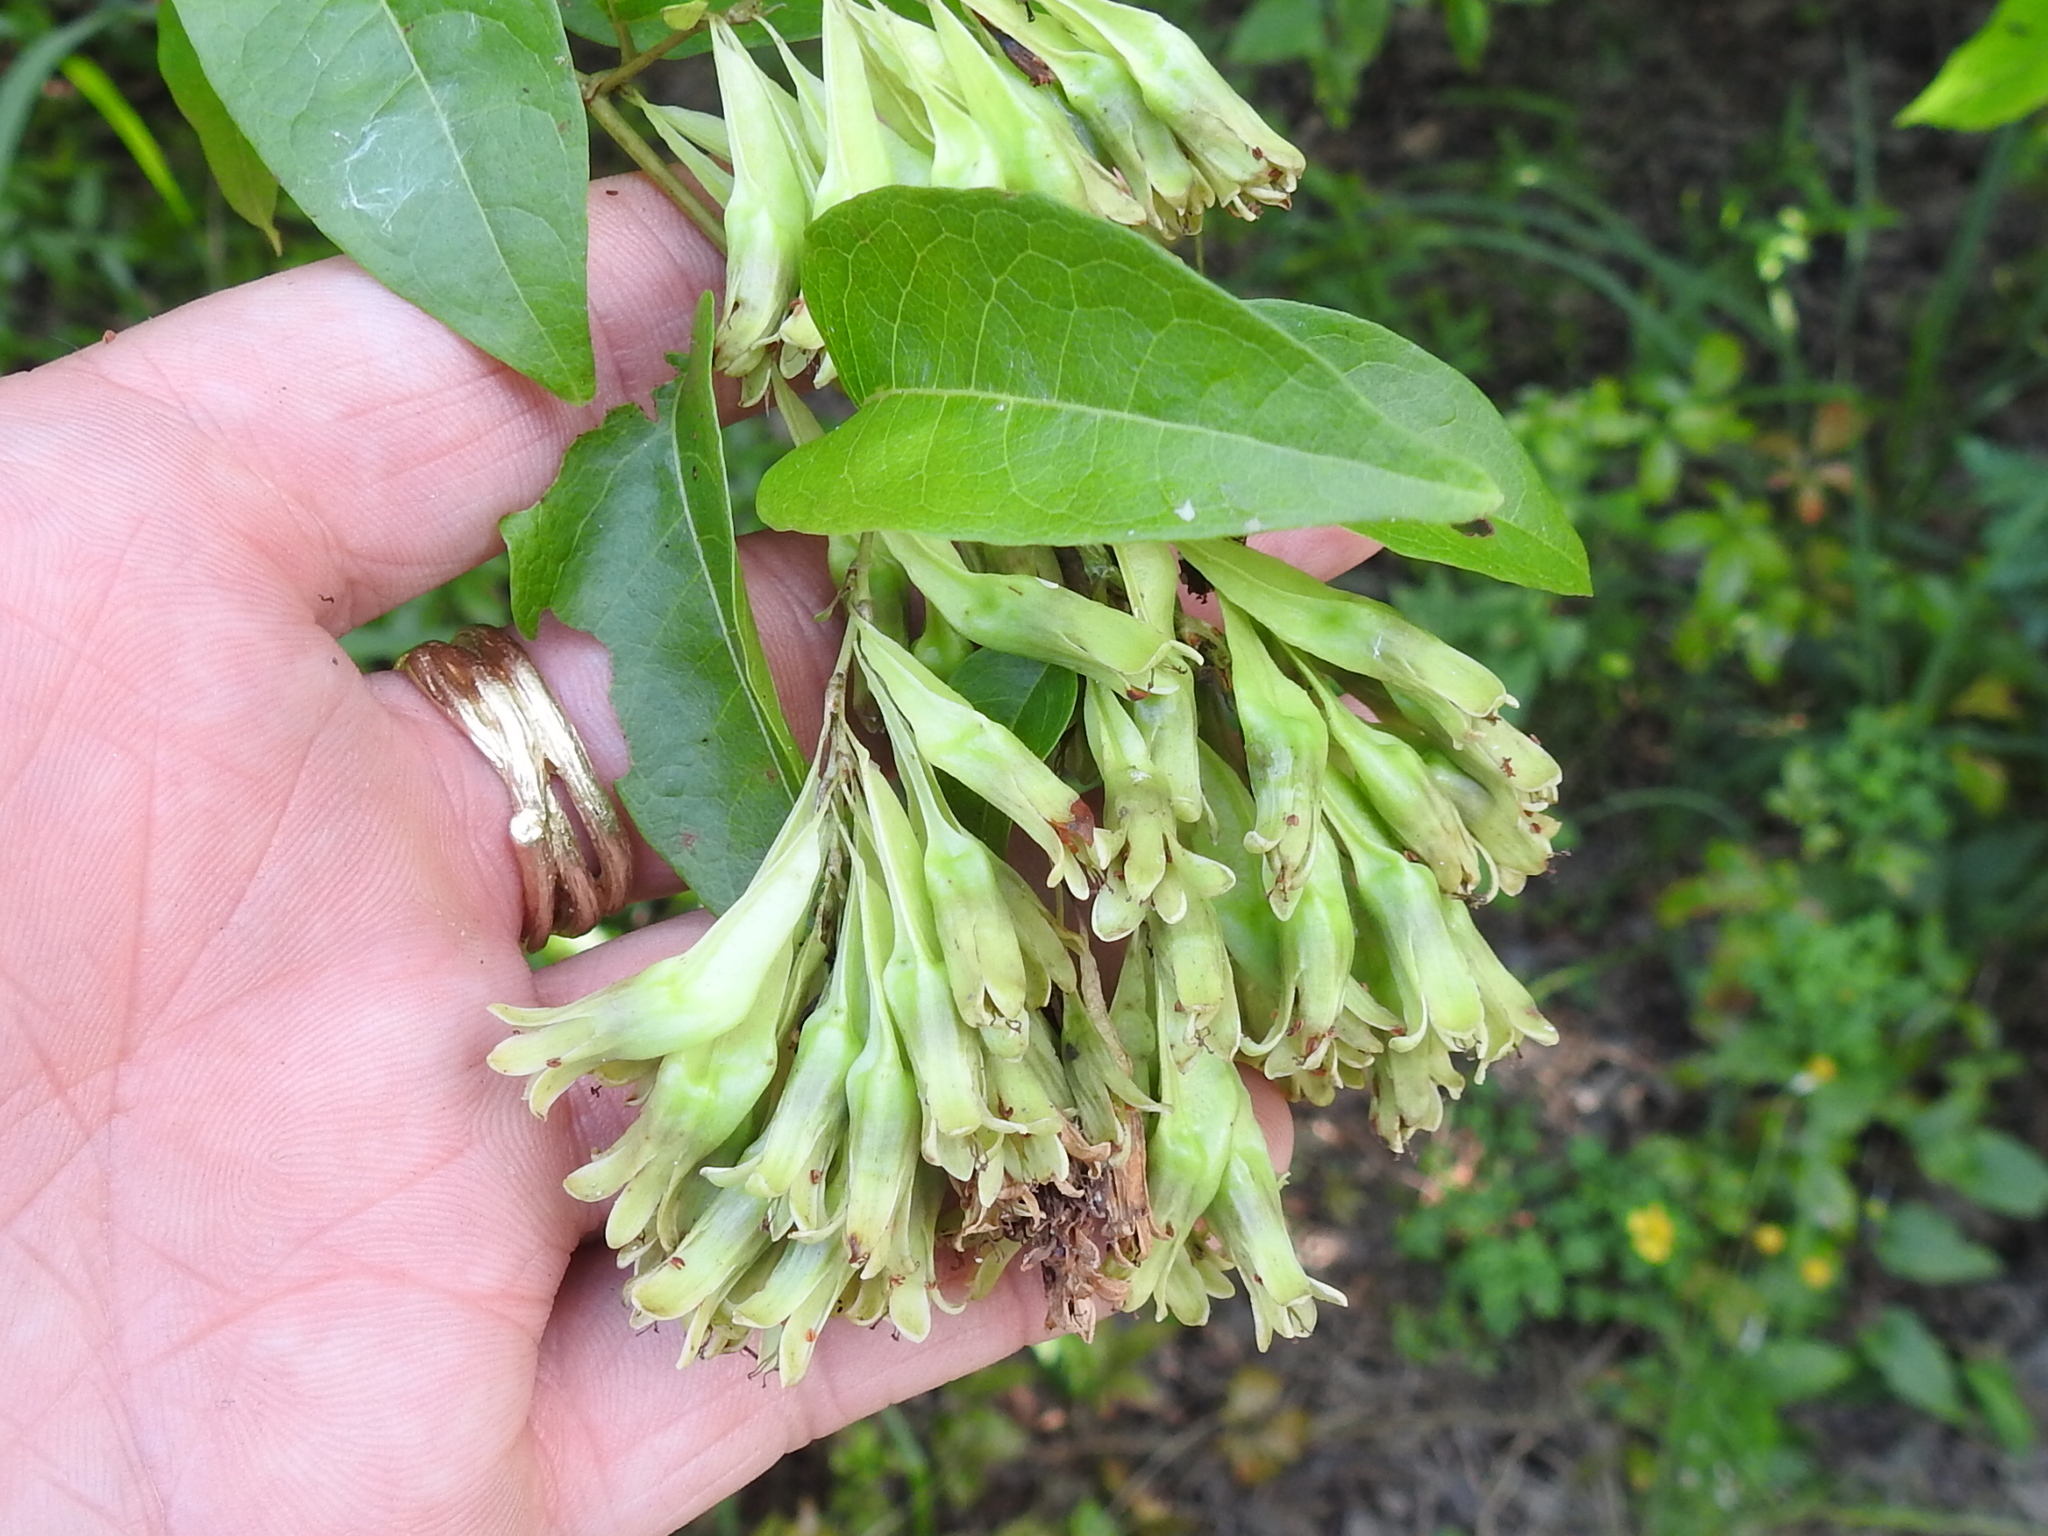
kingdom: Plantae
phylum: Tracheophyta
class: Magnoliopsida
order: Caryophyllales
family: Polygonaceae
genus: Brunnichia
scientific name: Brunnichia ovata
